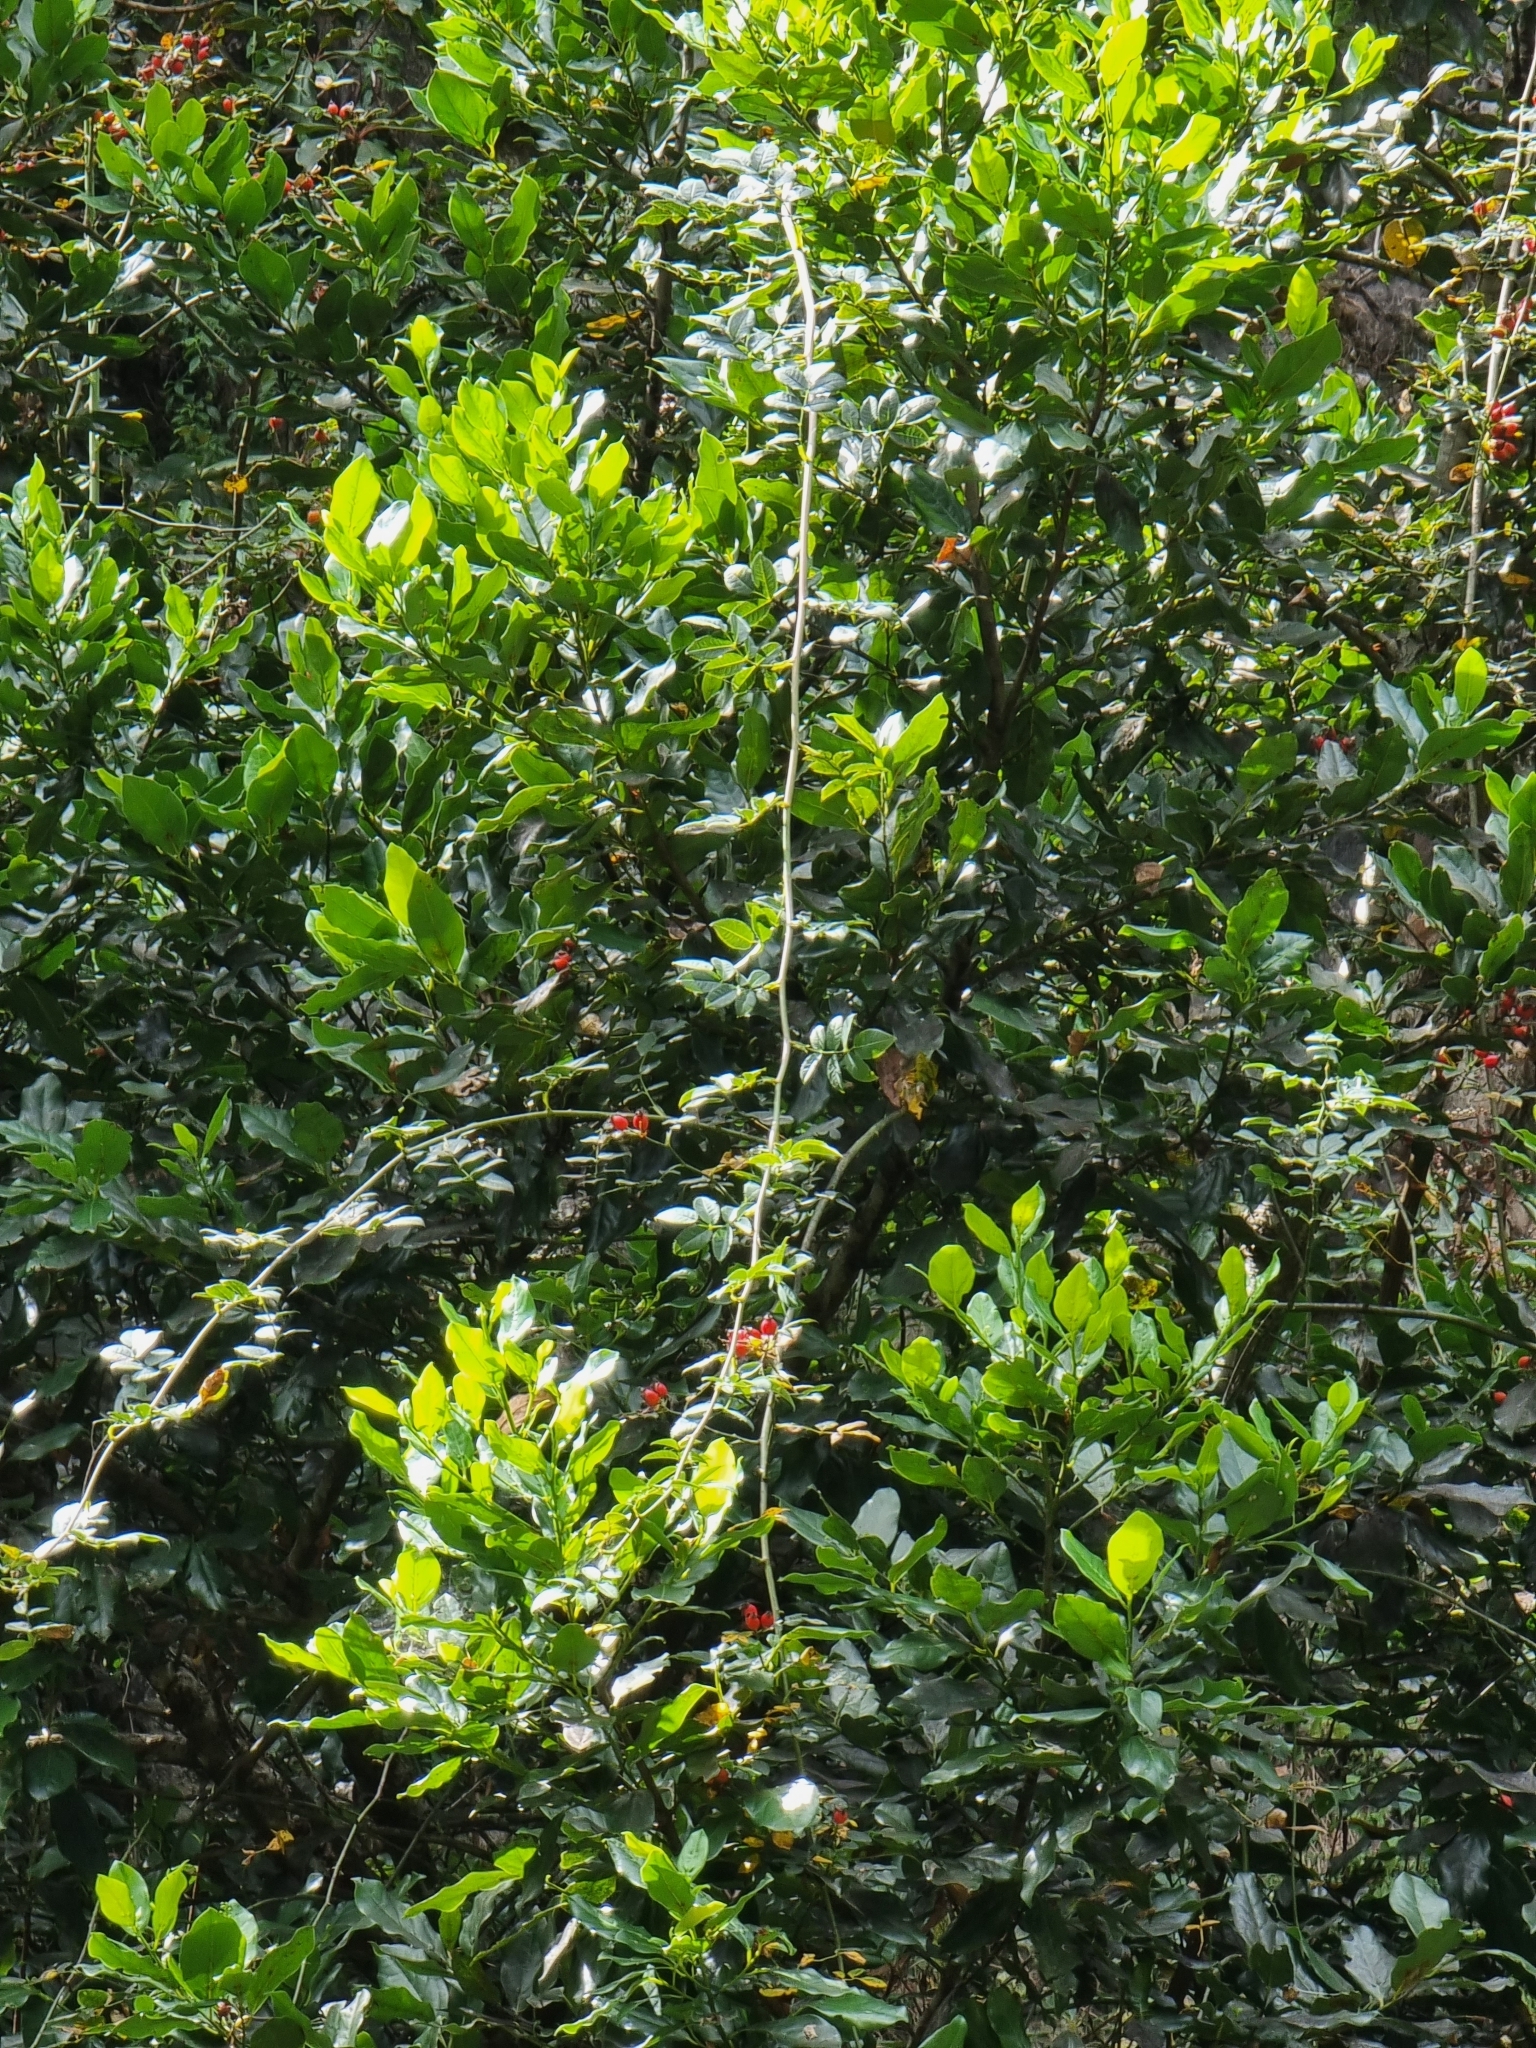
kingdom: Plantae
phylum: Tracheophyta
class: Magnoliopsida
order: Rosales
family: Rosaceae
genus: Rosa
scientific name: Rosa canina
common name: Dog rose
